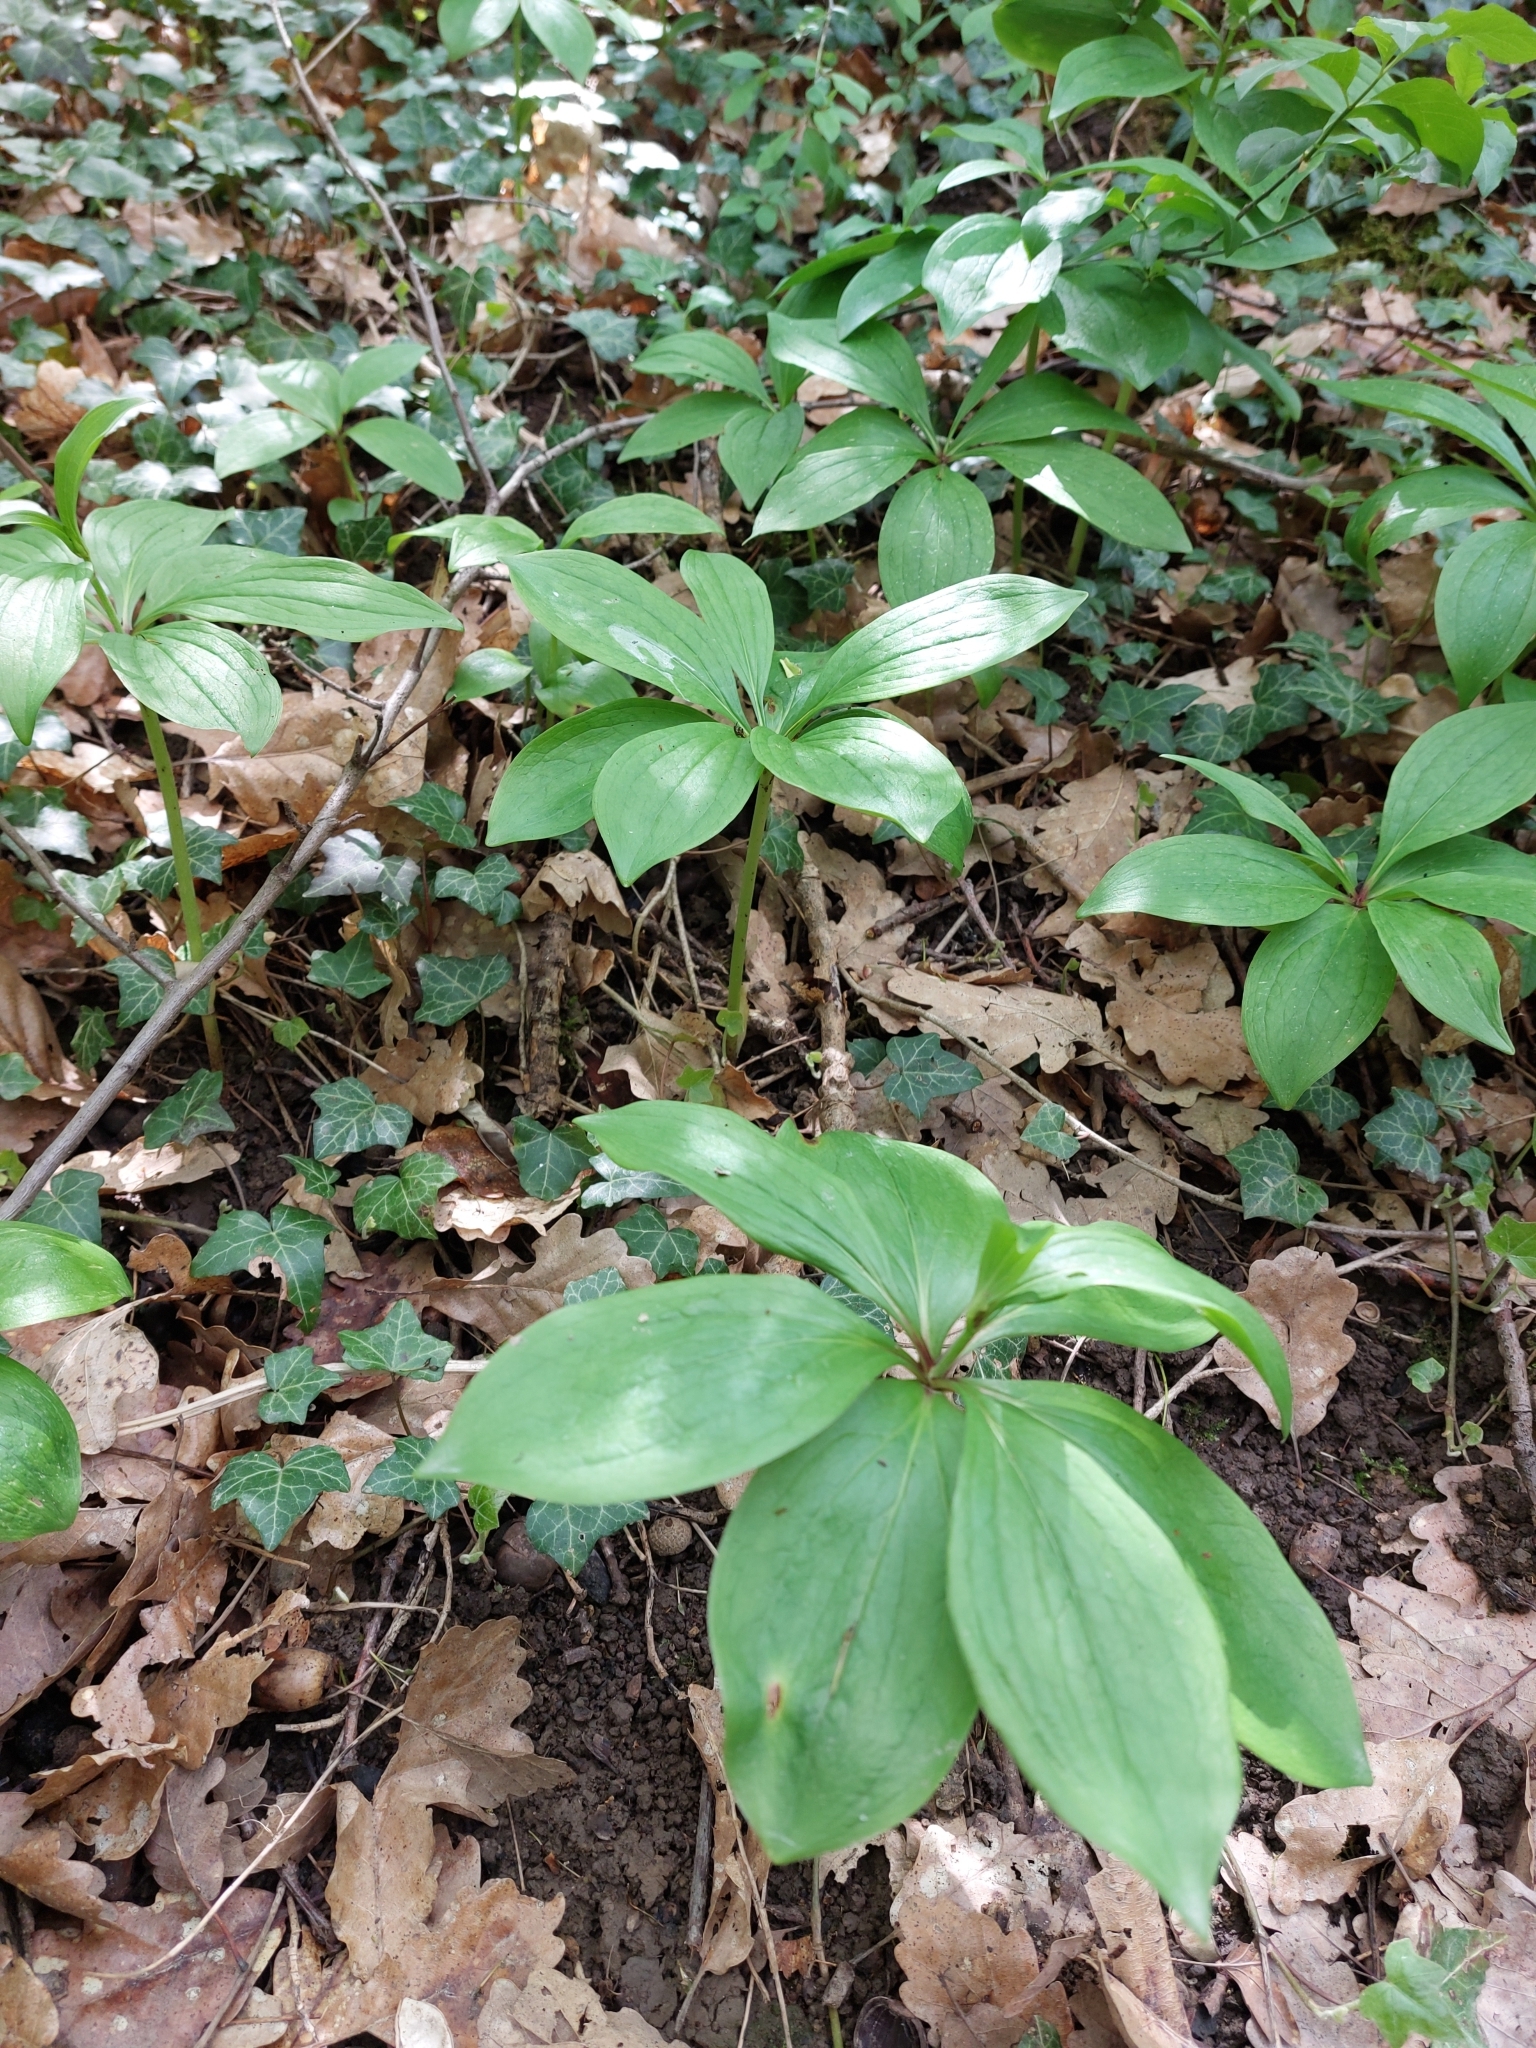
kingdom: Plantae
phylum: Tracheophyta
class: Liliopsida
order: Liliales
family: Liliaceae
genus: Lilium
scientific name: Lilium martagon
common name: Martagon lily
